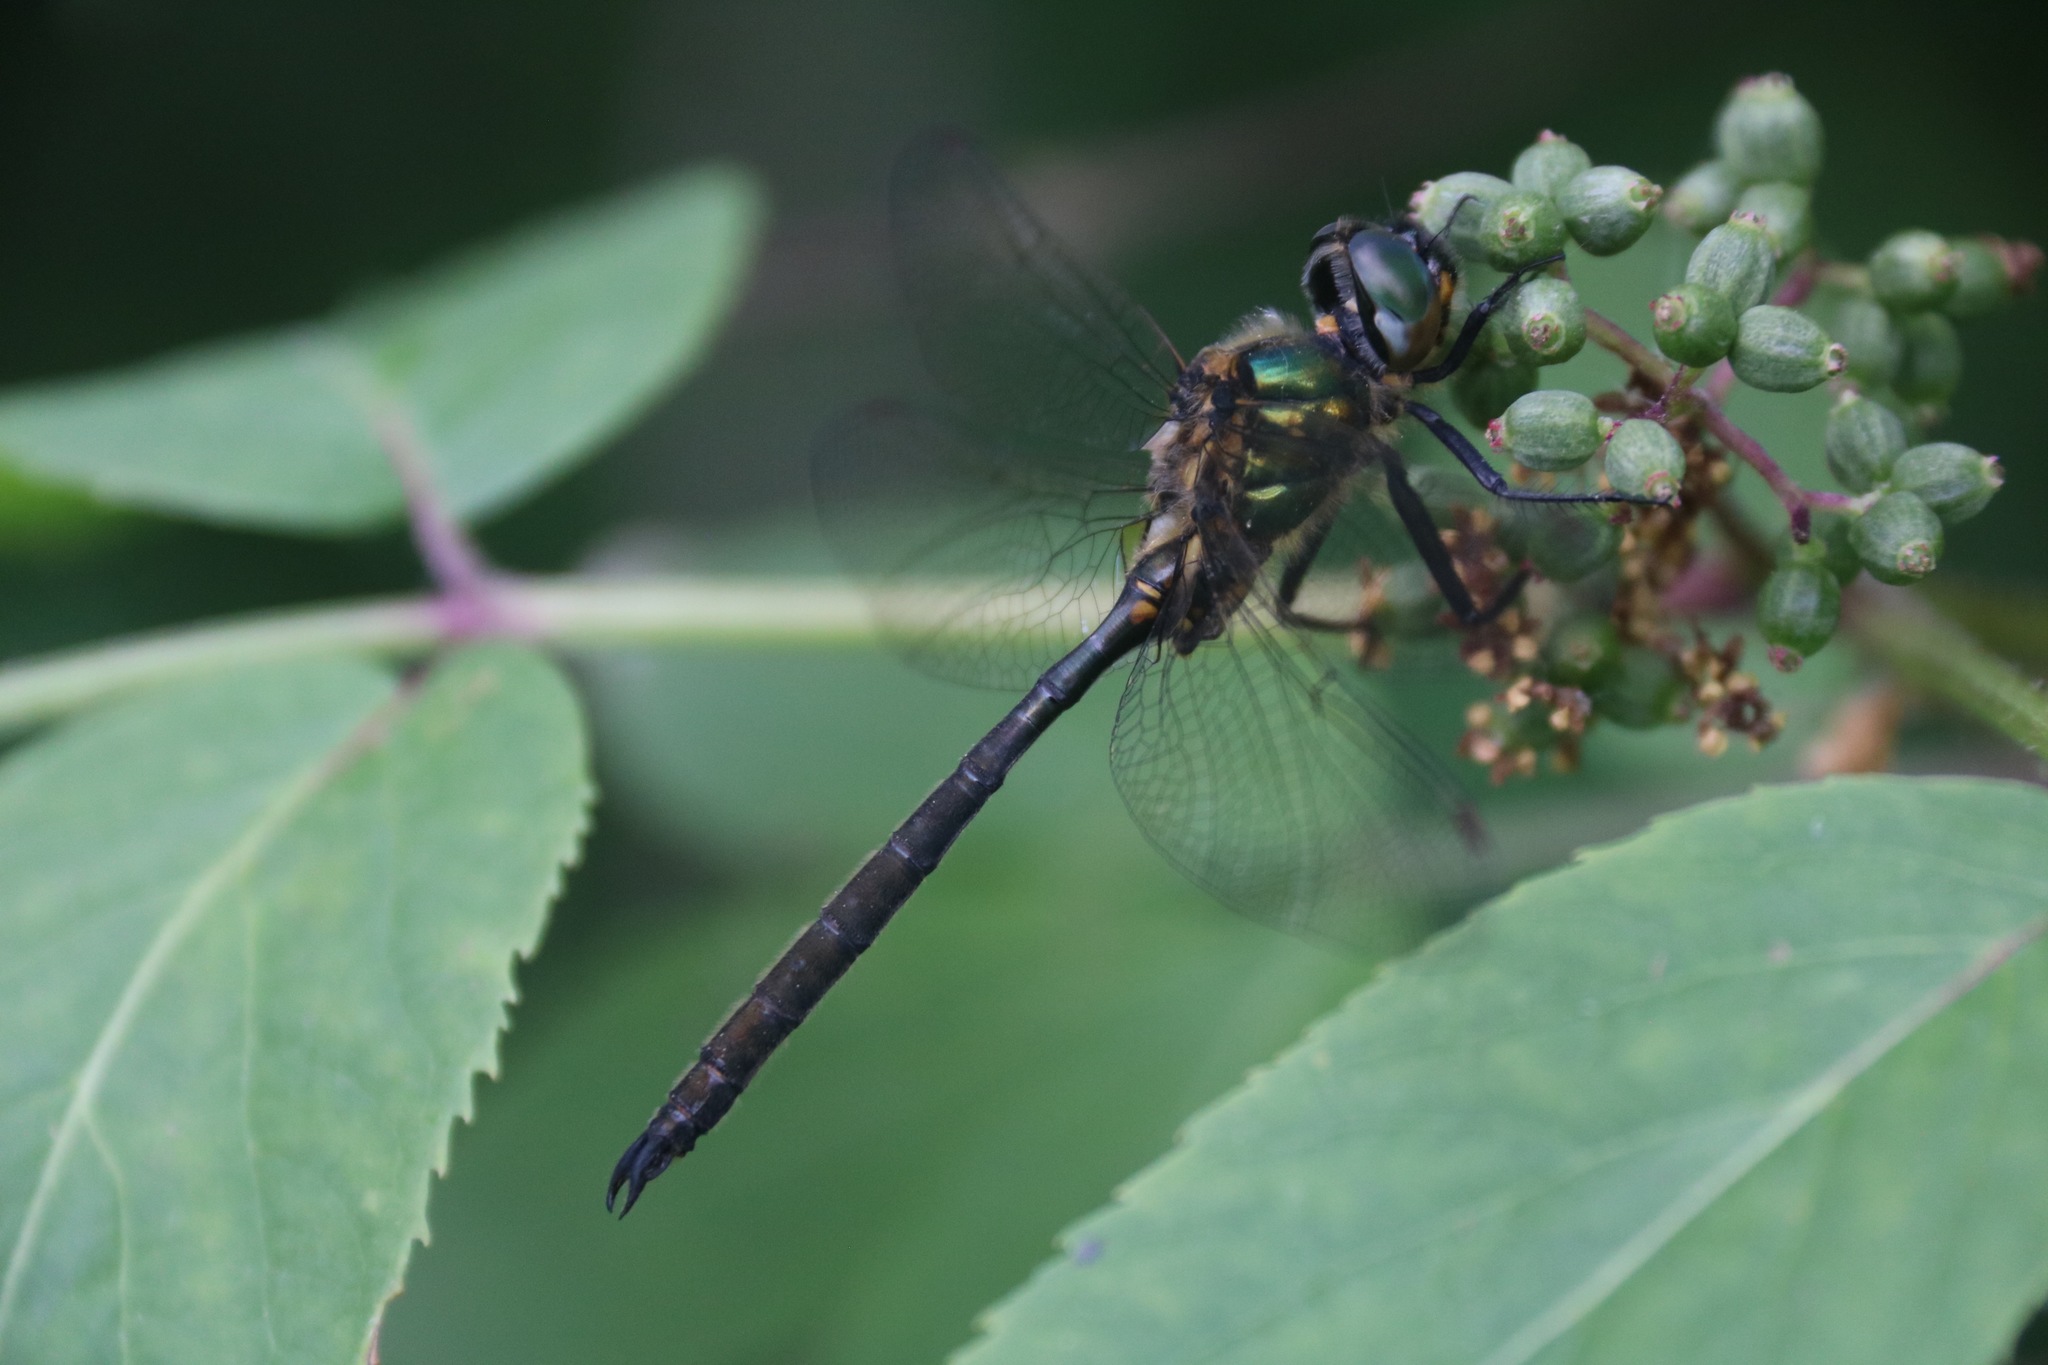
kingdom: Animalia
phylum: Arthropoda
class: Insecta
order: Odonata
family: Corduliidae
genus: Somatochlora
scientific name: Somatochlora arctica
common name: Northern emerald
